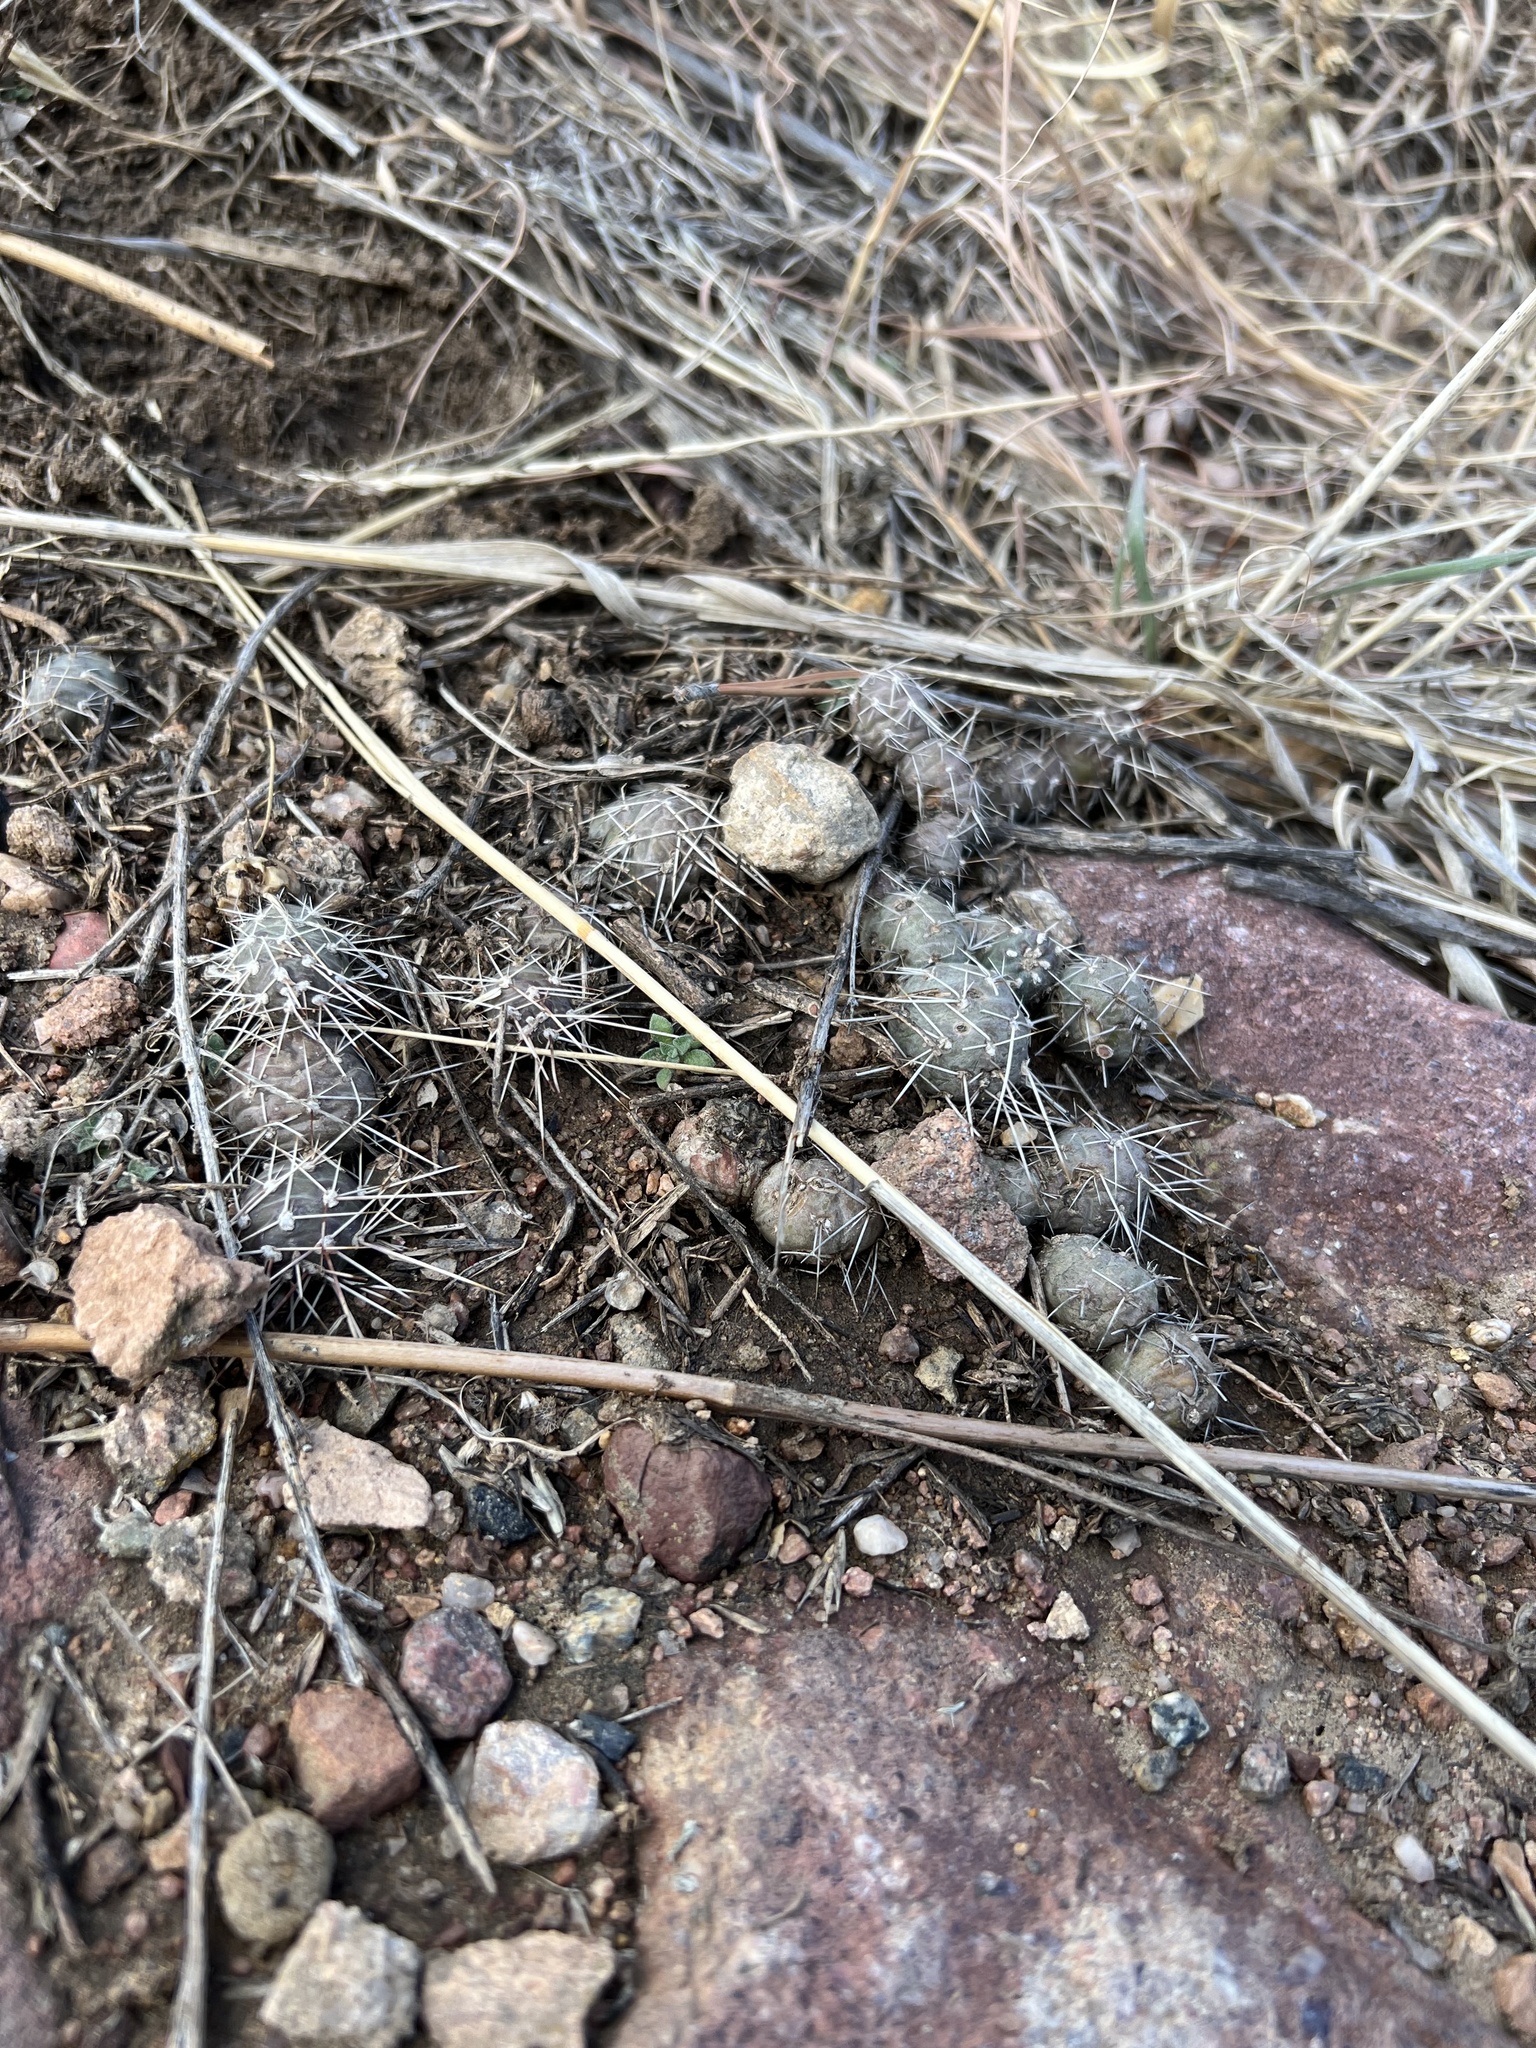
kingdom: Plantae
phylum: Tracheophyta
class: Magnoliopsida
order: Caryophyllales
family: Cactaceae
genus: Opuntia
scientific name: Opuntia fragilis
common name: Brittle cactus
